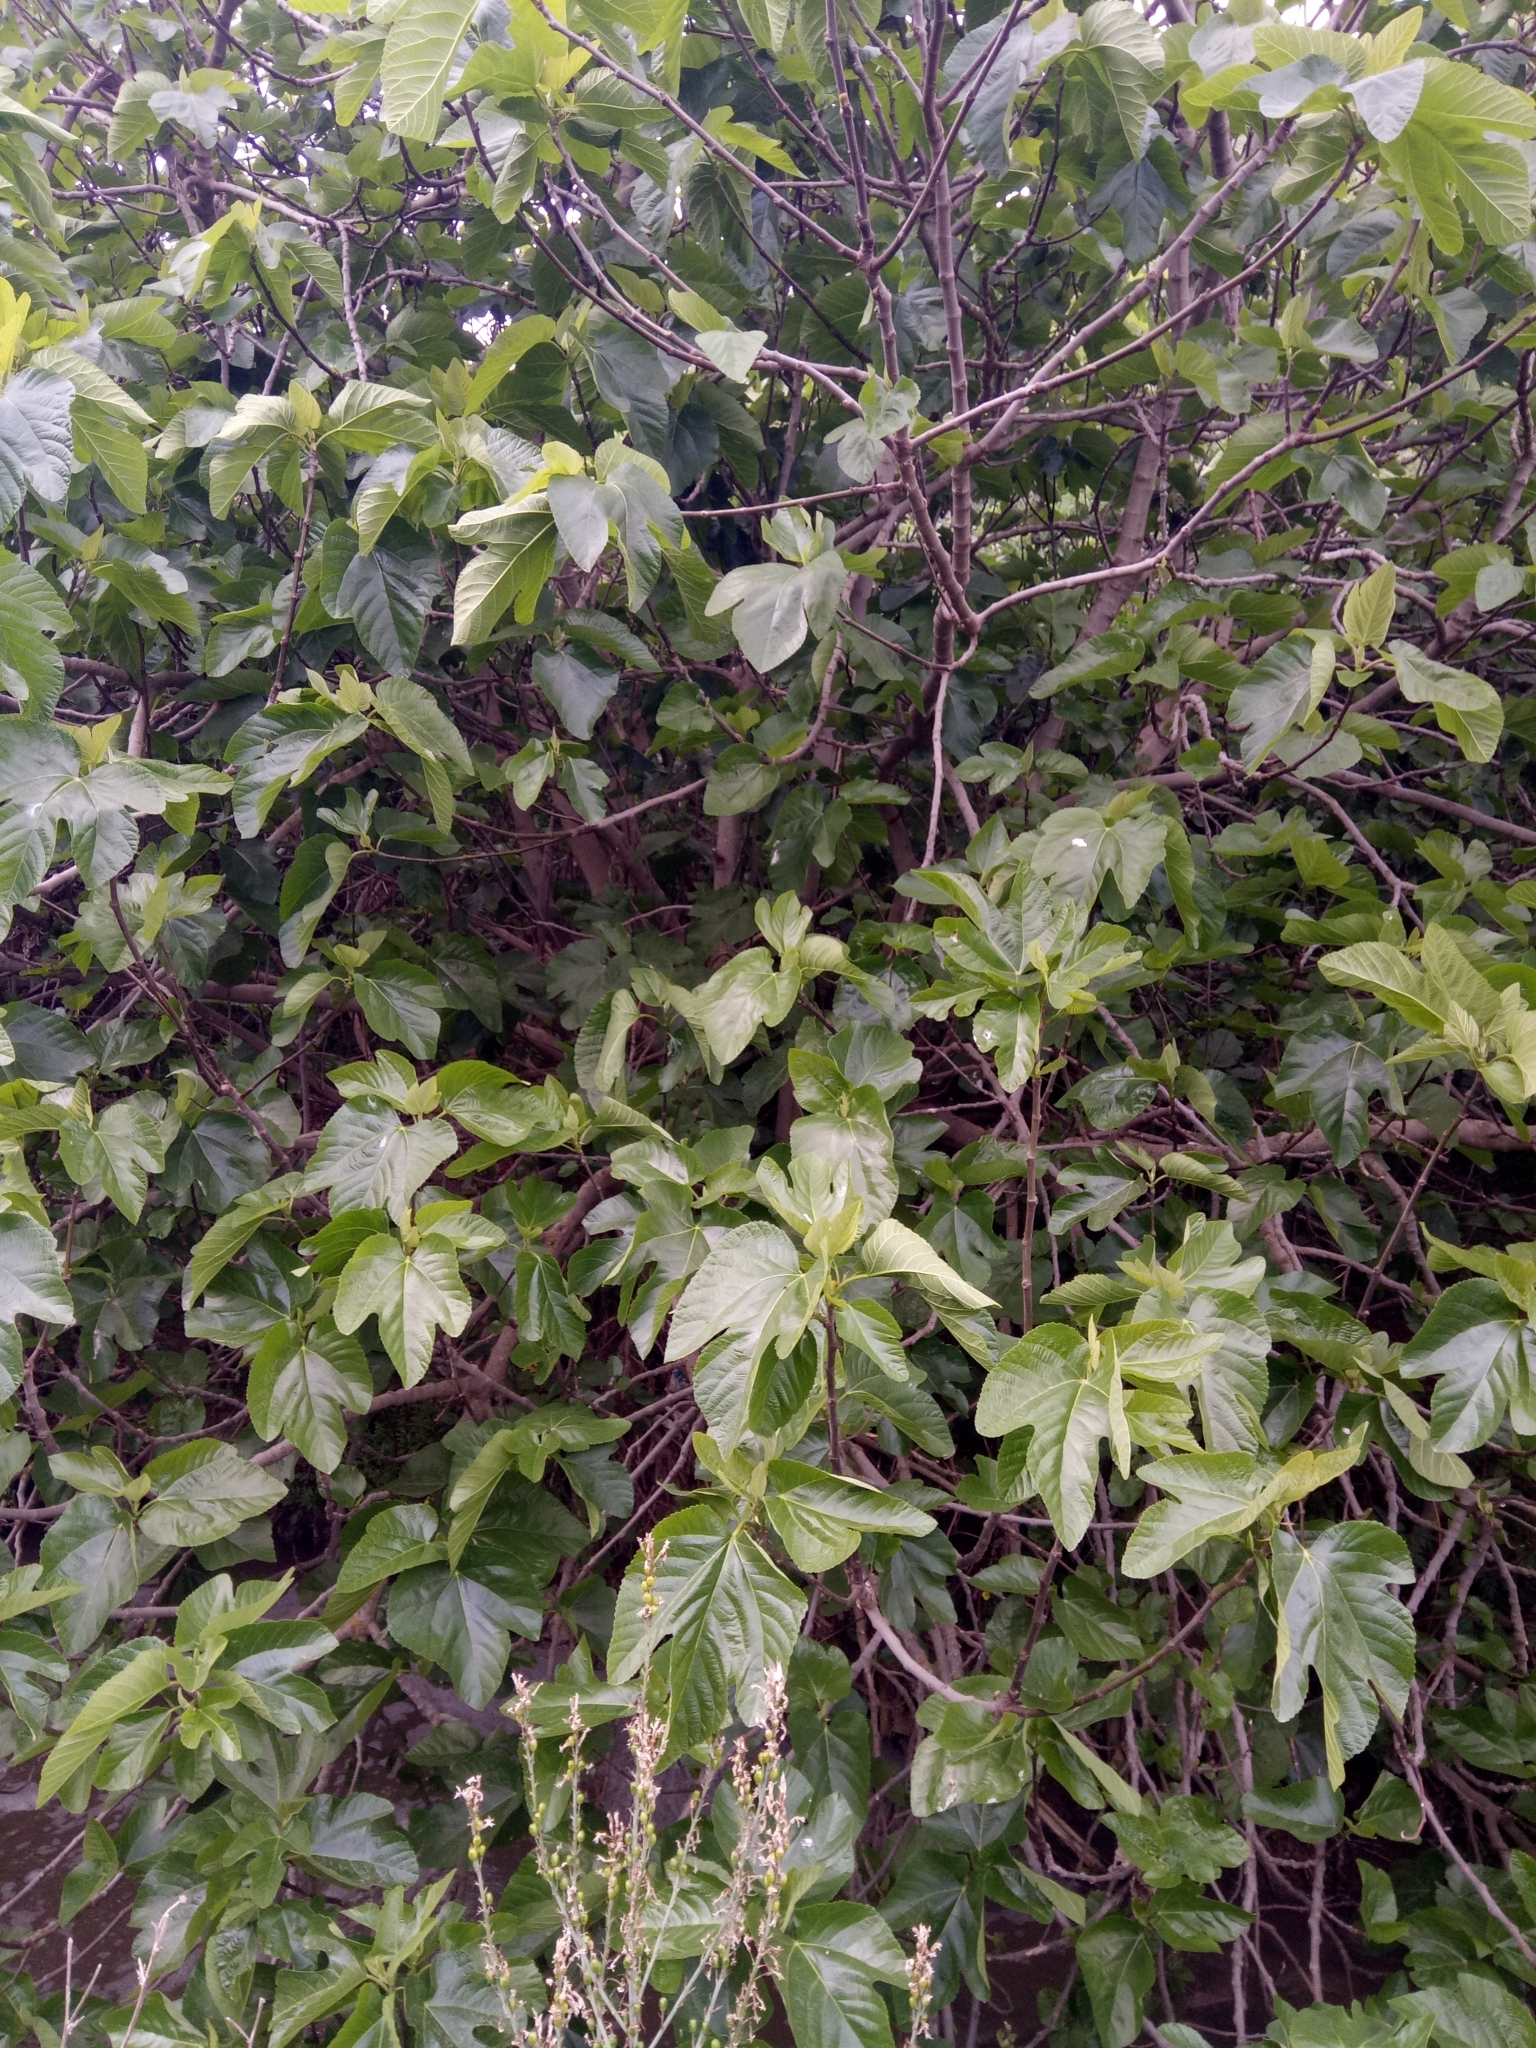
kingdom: Plantae
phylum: Tracheophyta
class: Magnoliopsida
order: Rosales
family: Moraceae
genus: Ficus
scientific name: Ficus carica
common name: Fig
